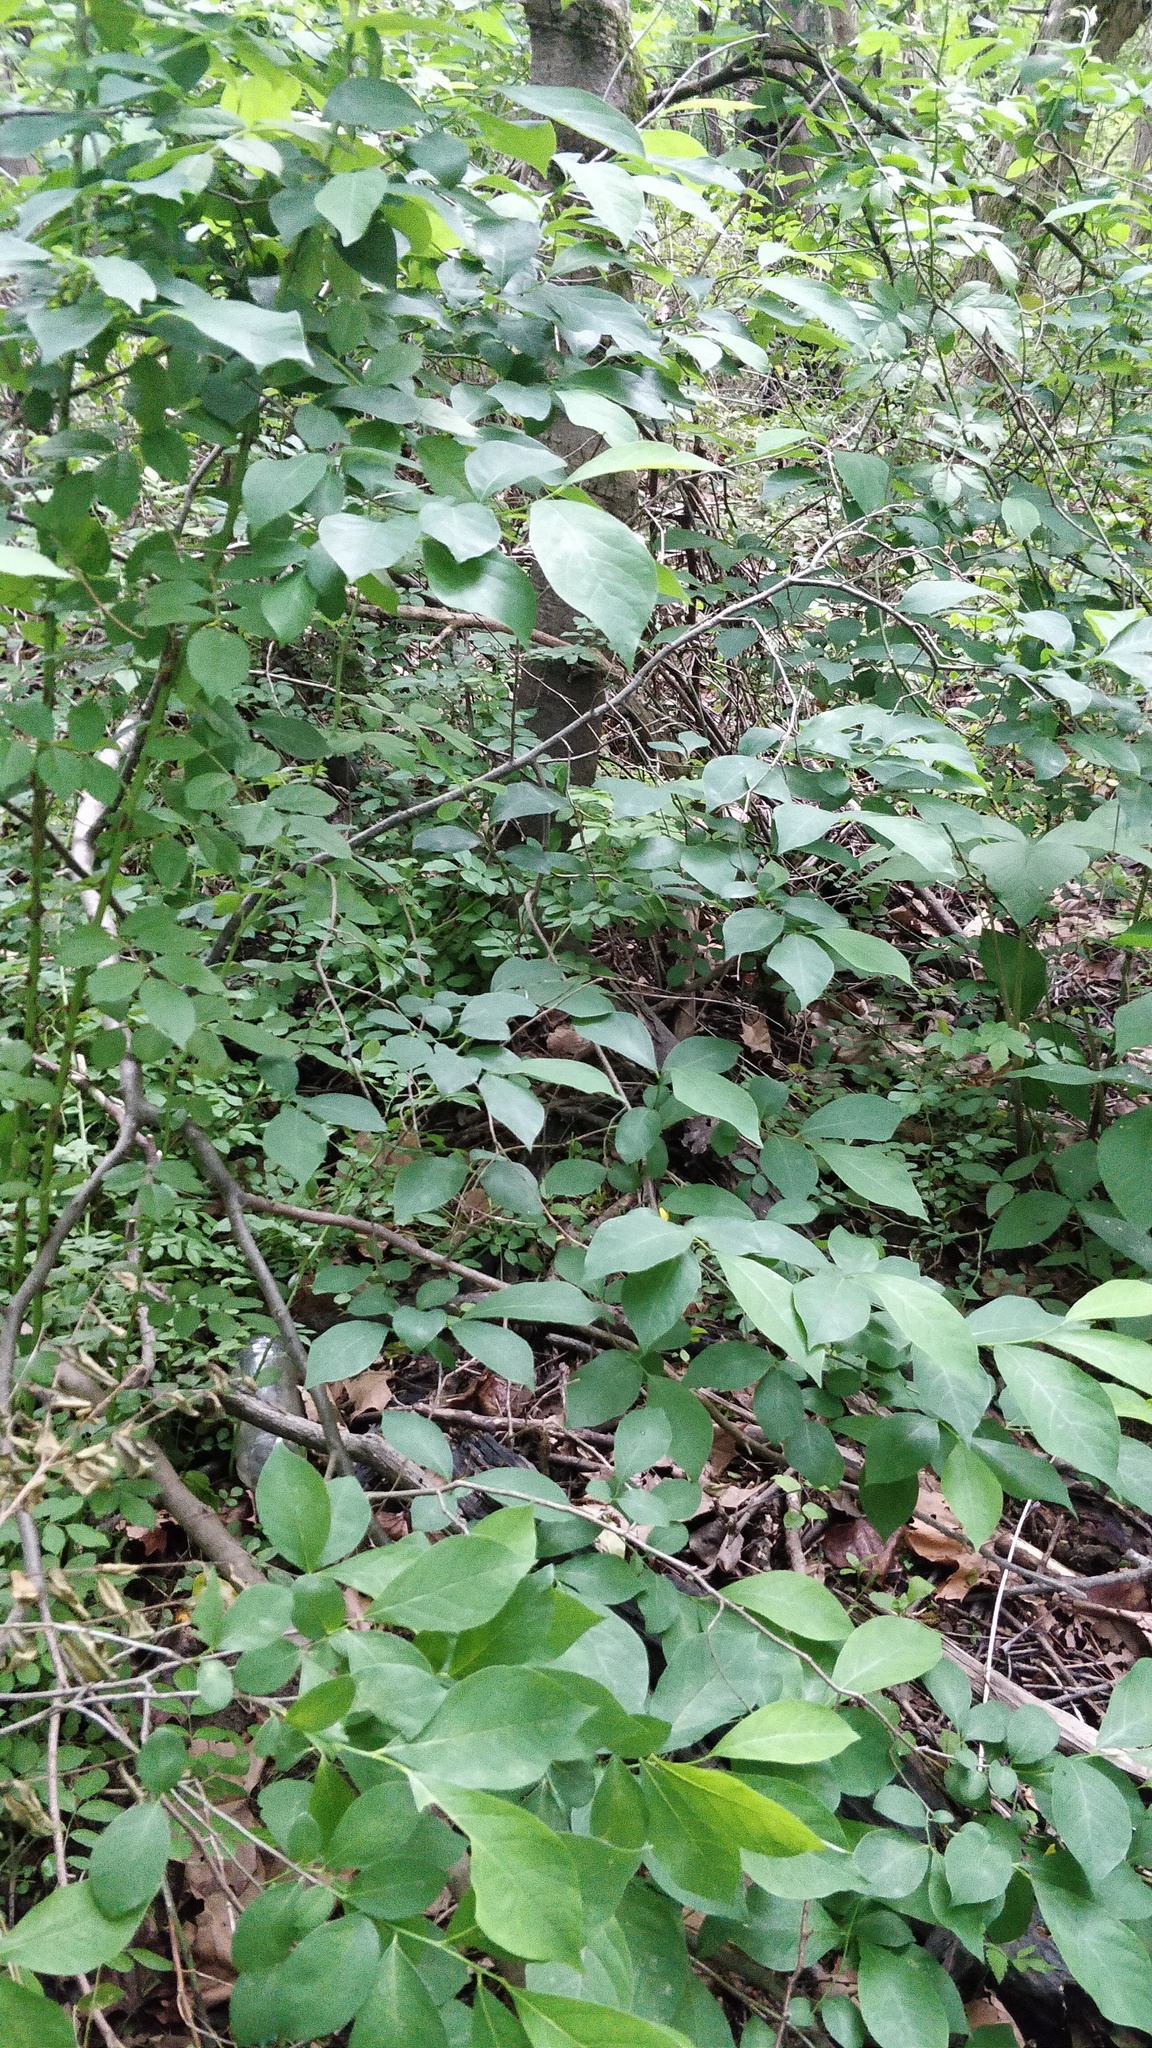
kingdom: Plantae
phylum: Tracheophyta
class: Magnoliopsida
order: Laurales
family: Lauraceae
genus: Lindera
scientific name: Lindera benzoin
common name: Spicebush
